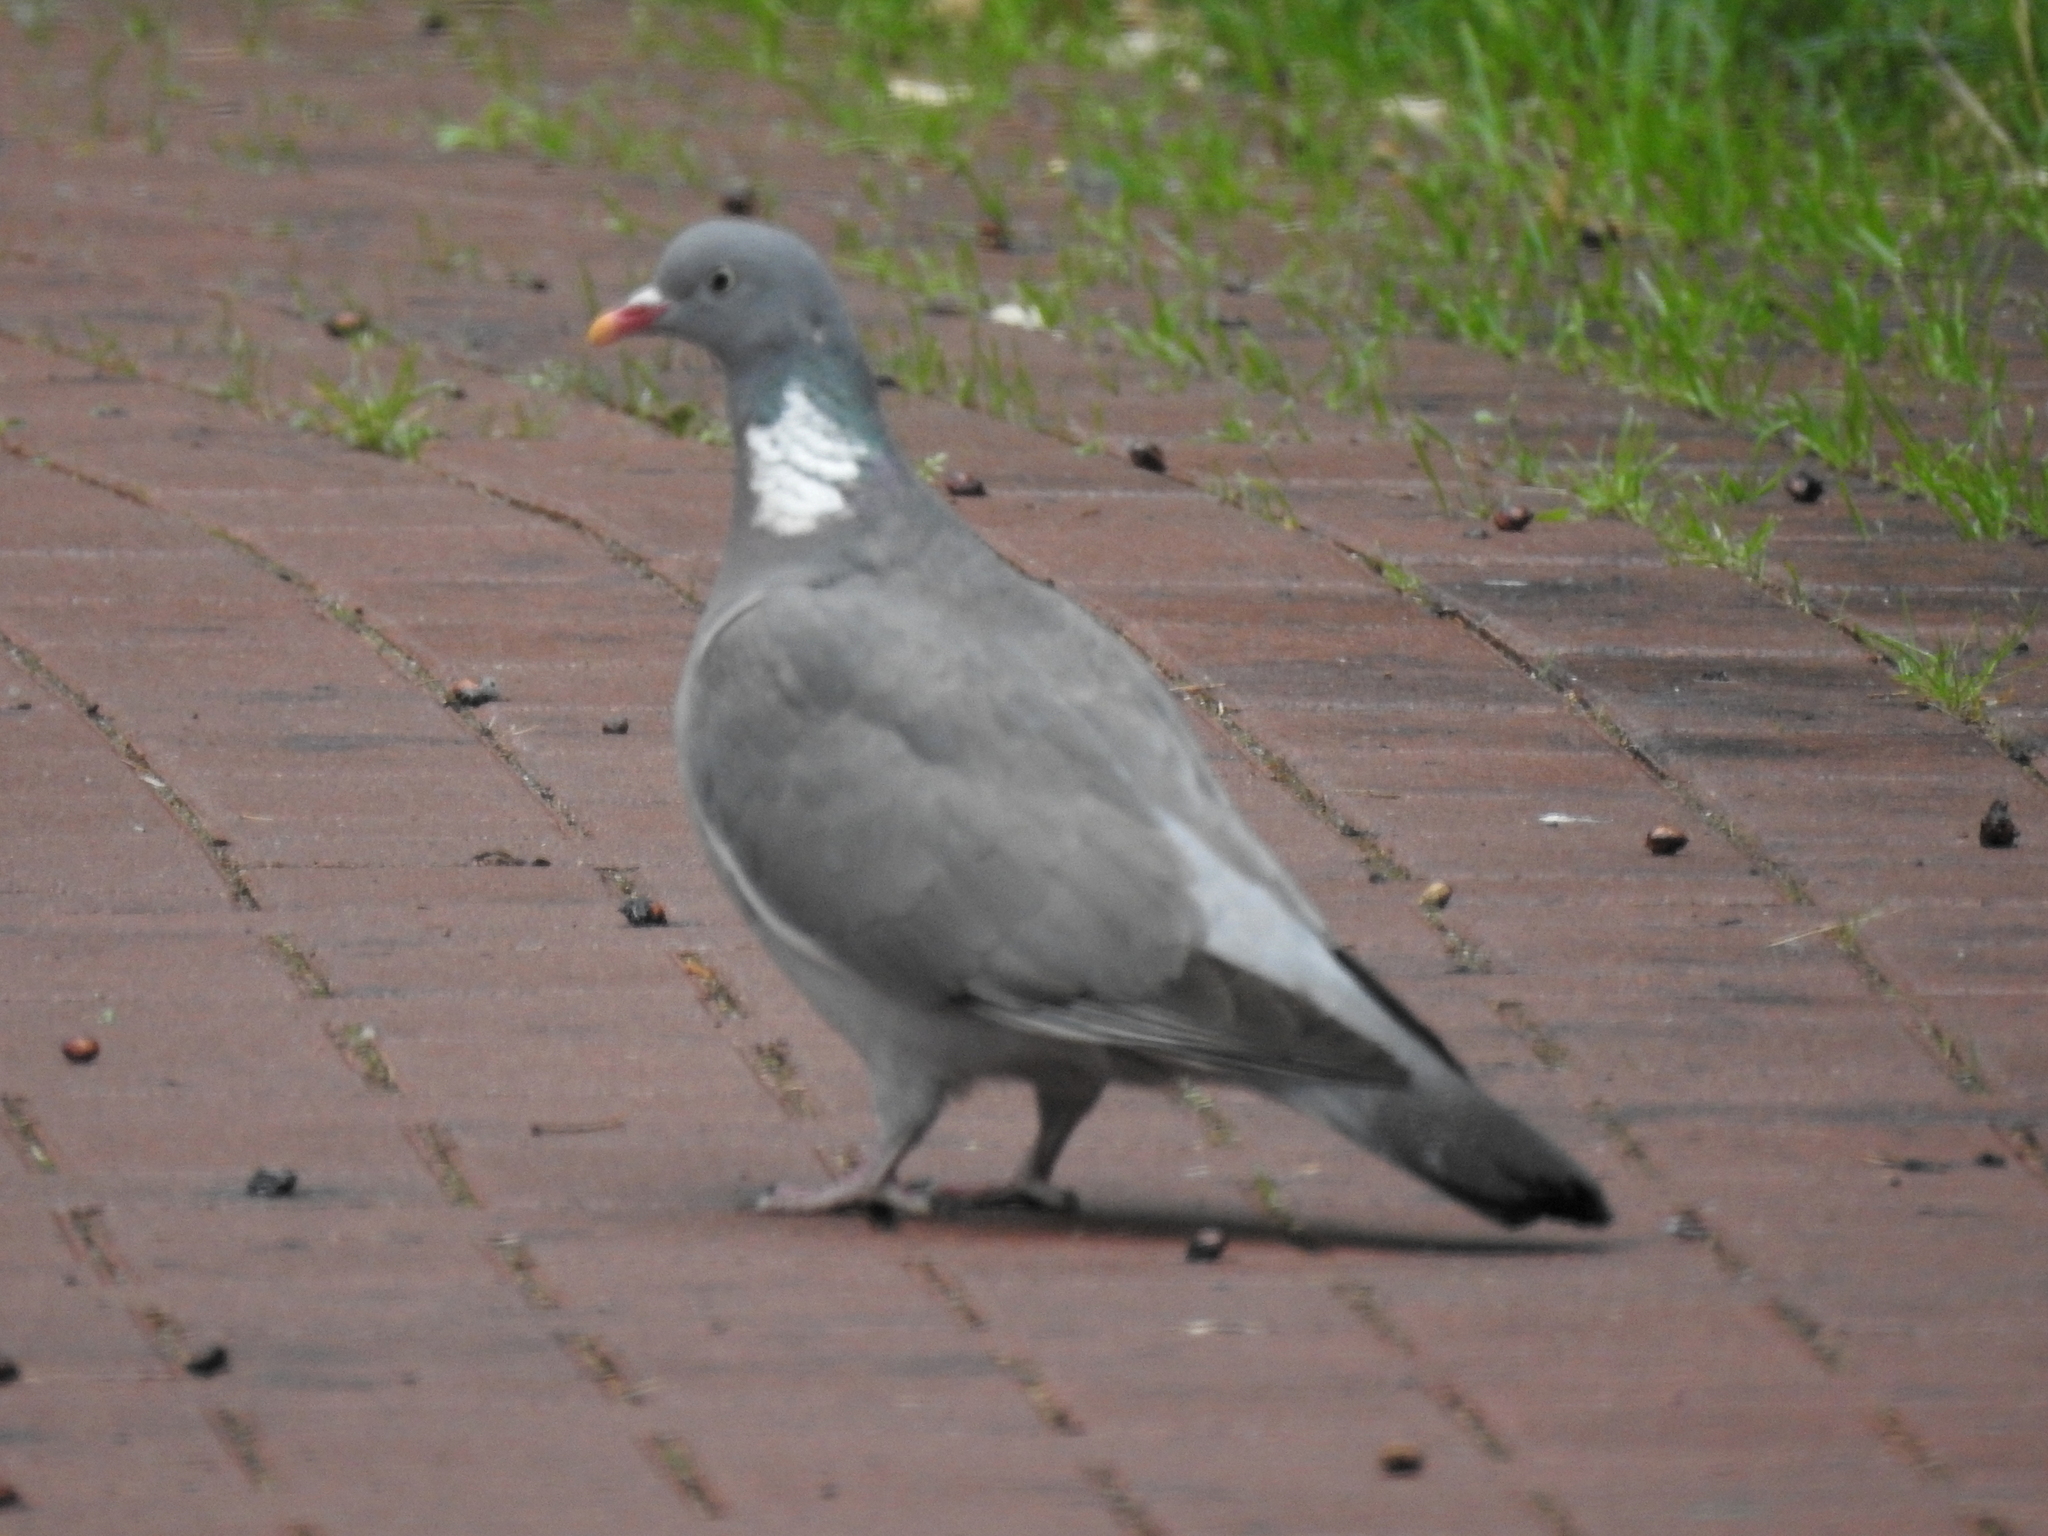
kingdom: Animalia
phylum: Chordata
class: Aves
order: Columbiformes
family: Columbidae
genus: Columba
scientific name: Columba palumbus
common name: Common wood pigeon
